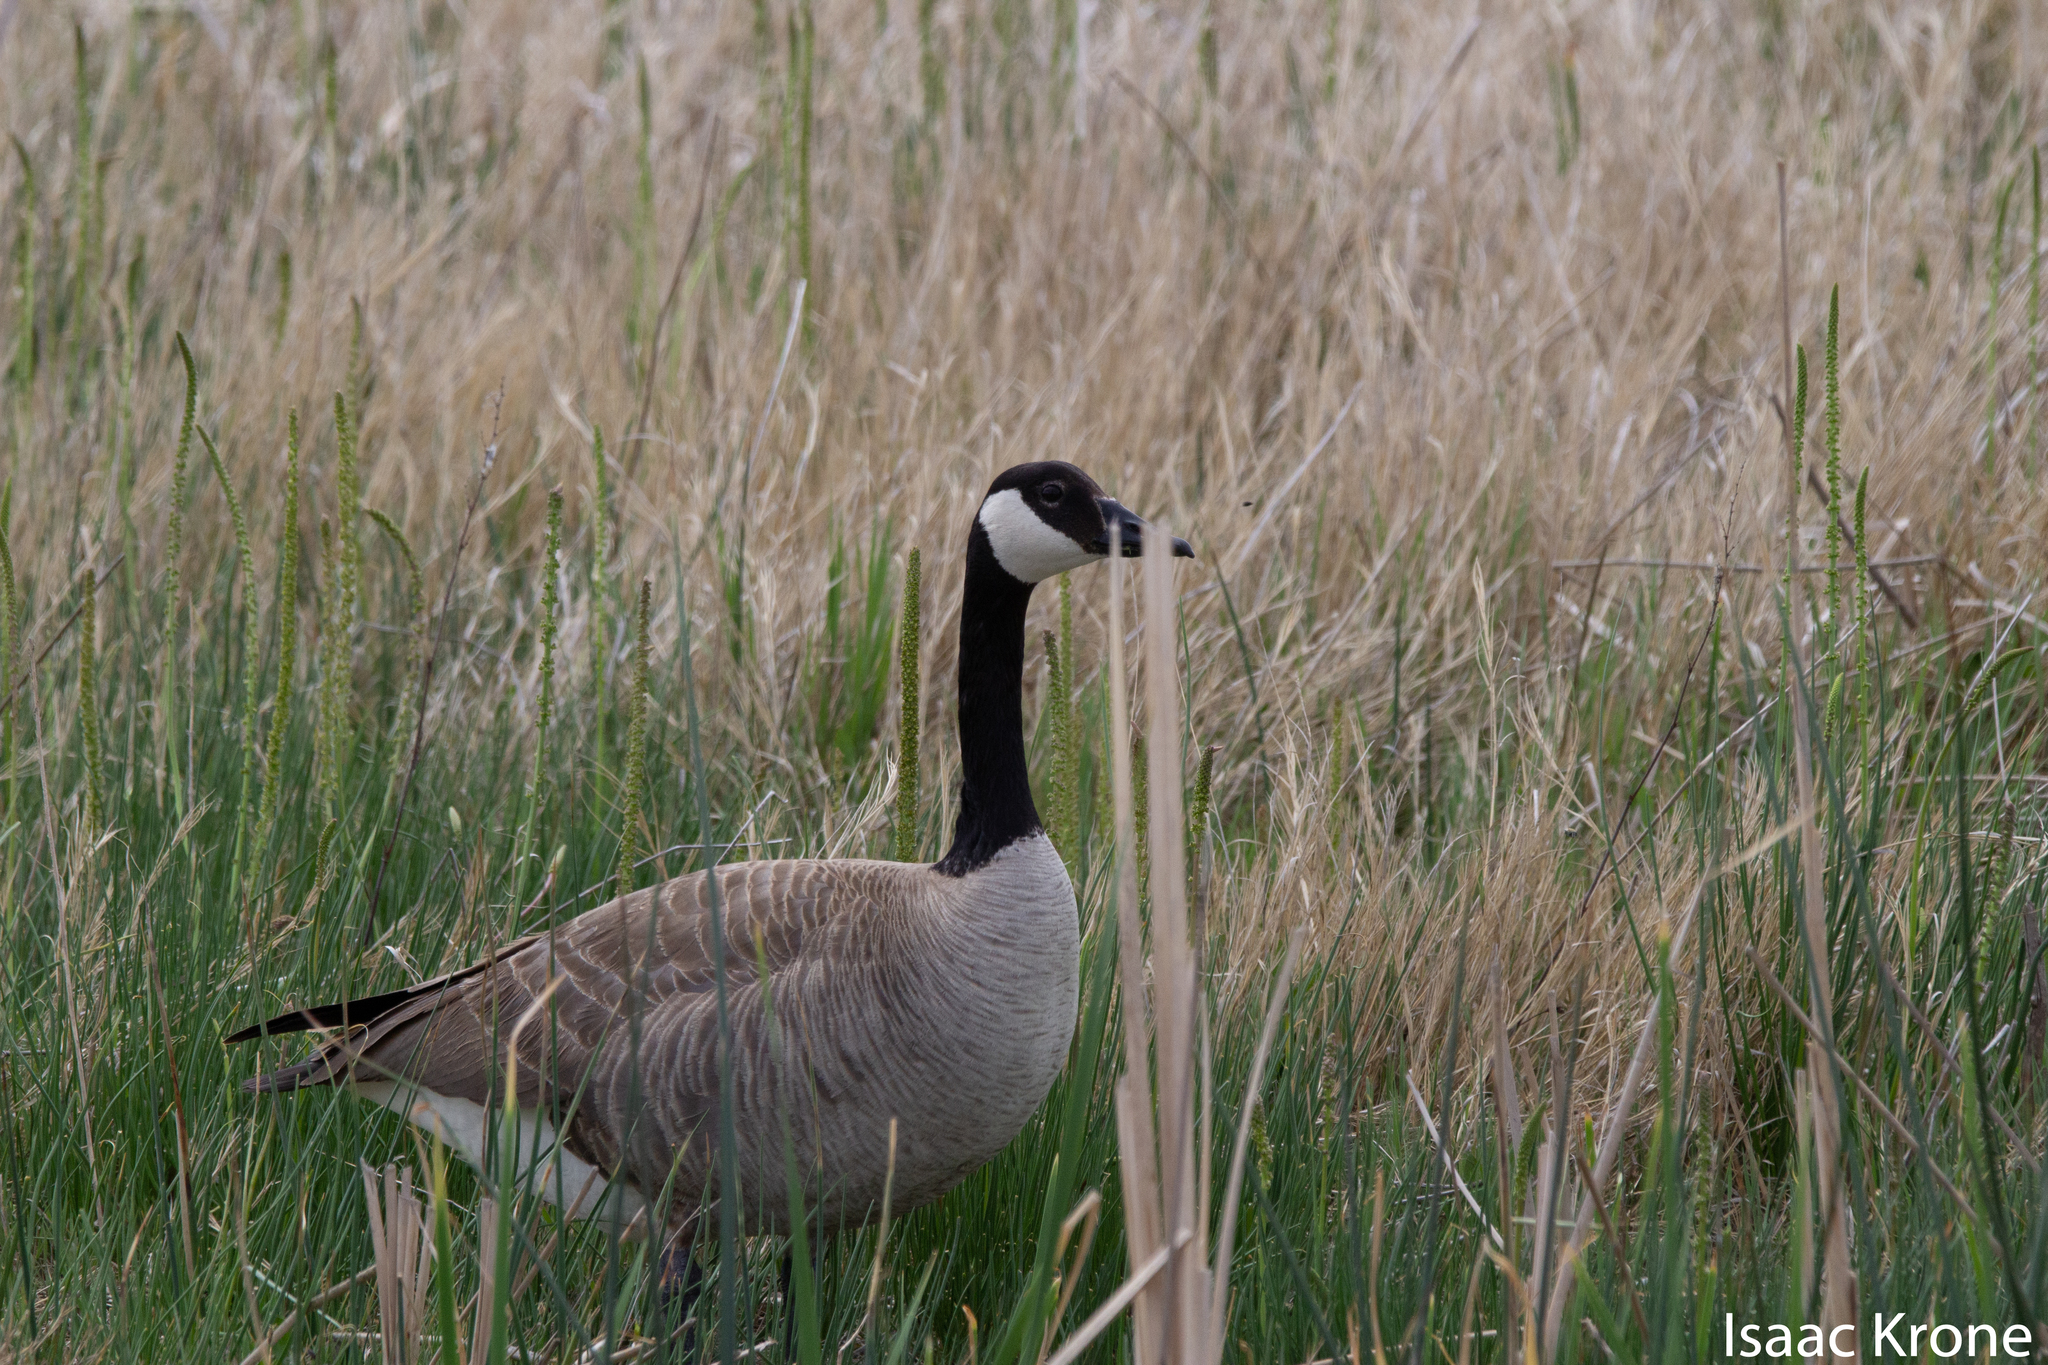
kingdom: Animalia
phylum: Chordata
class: Aves
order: Anseriformes
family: Anatidae
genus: Branta
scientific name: Branta canadensis
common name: Canada goose
